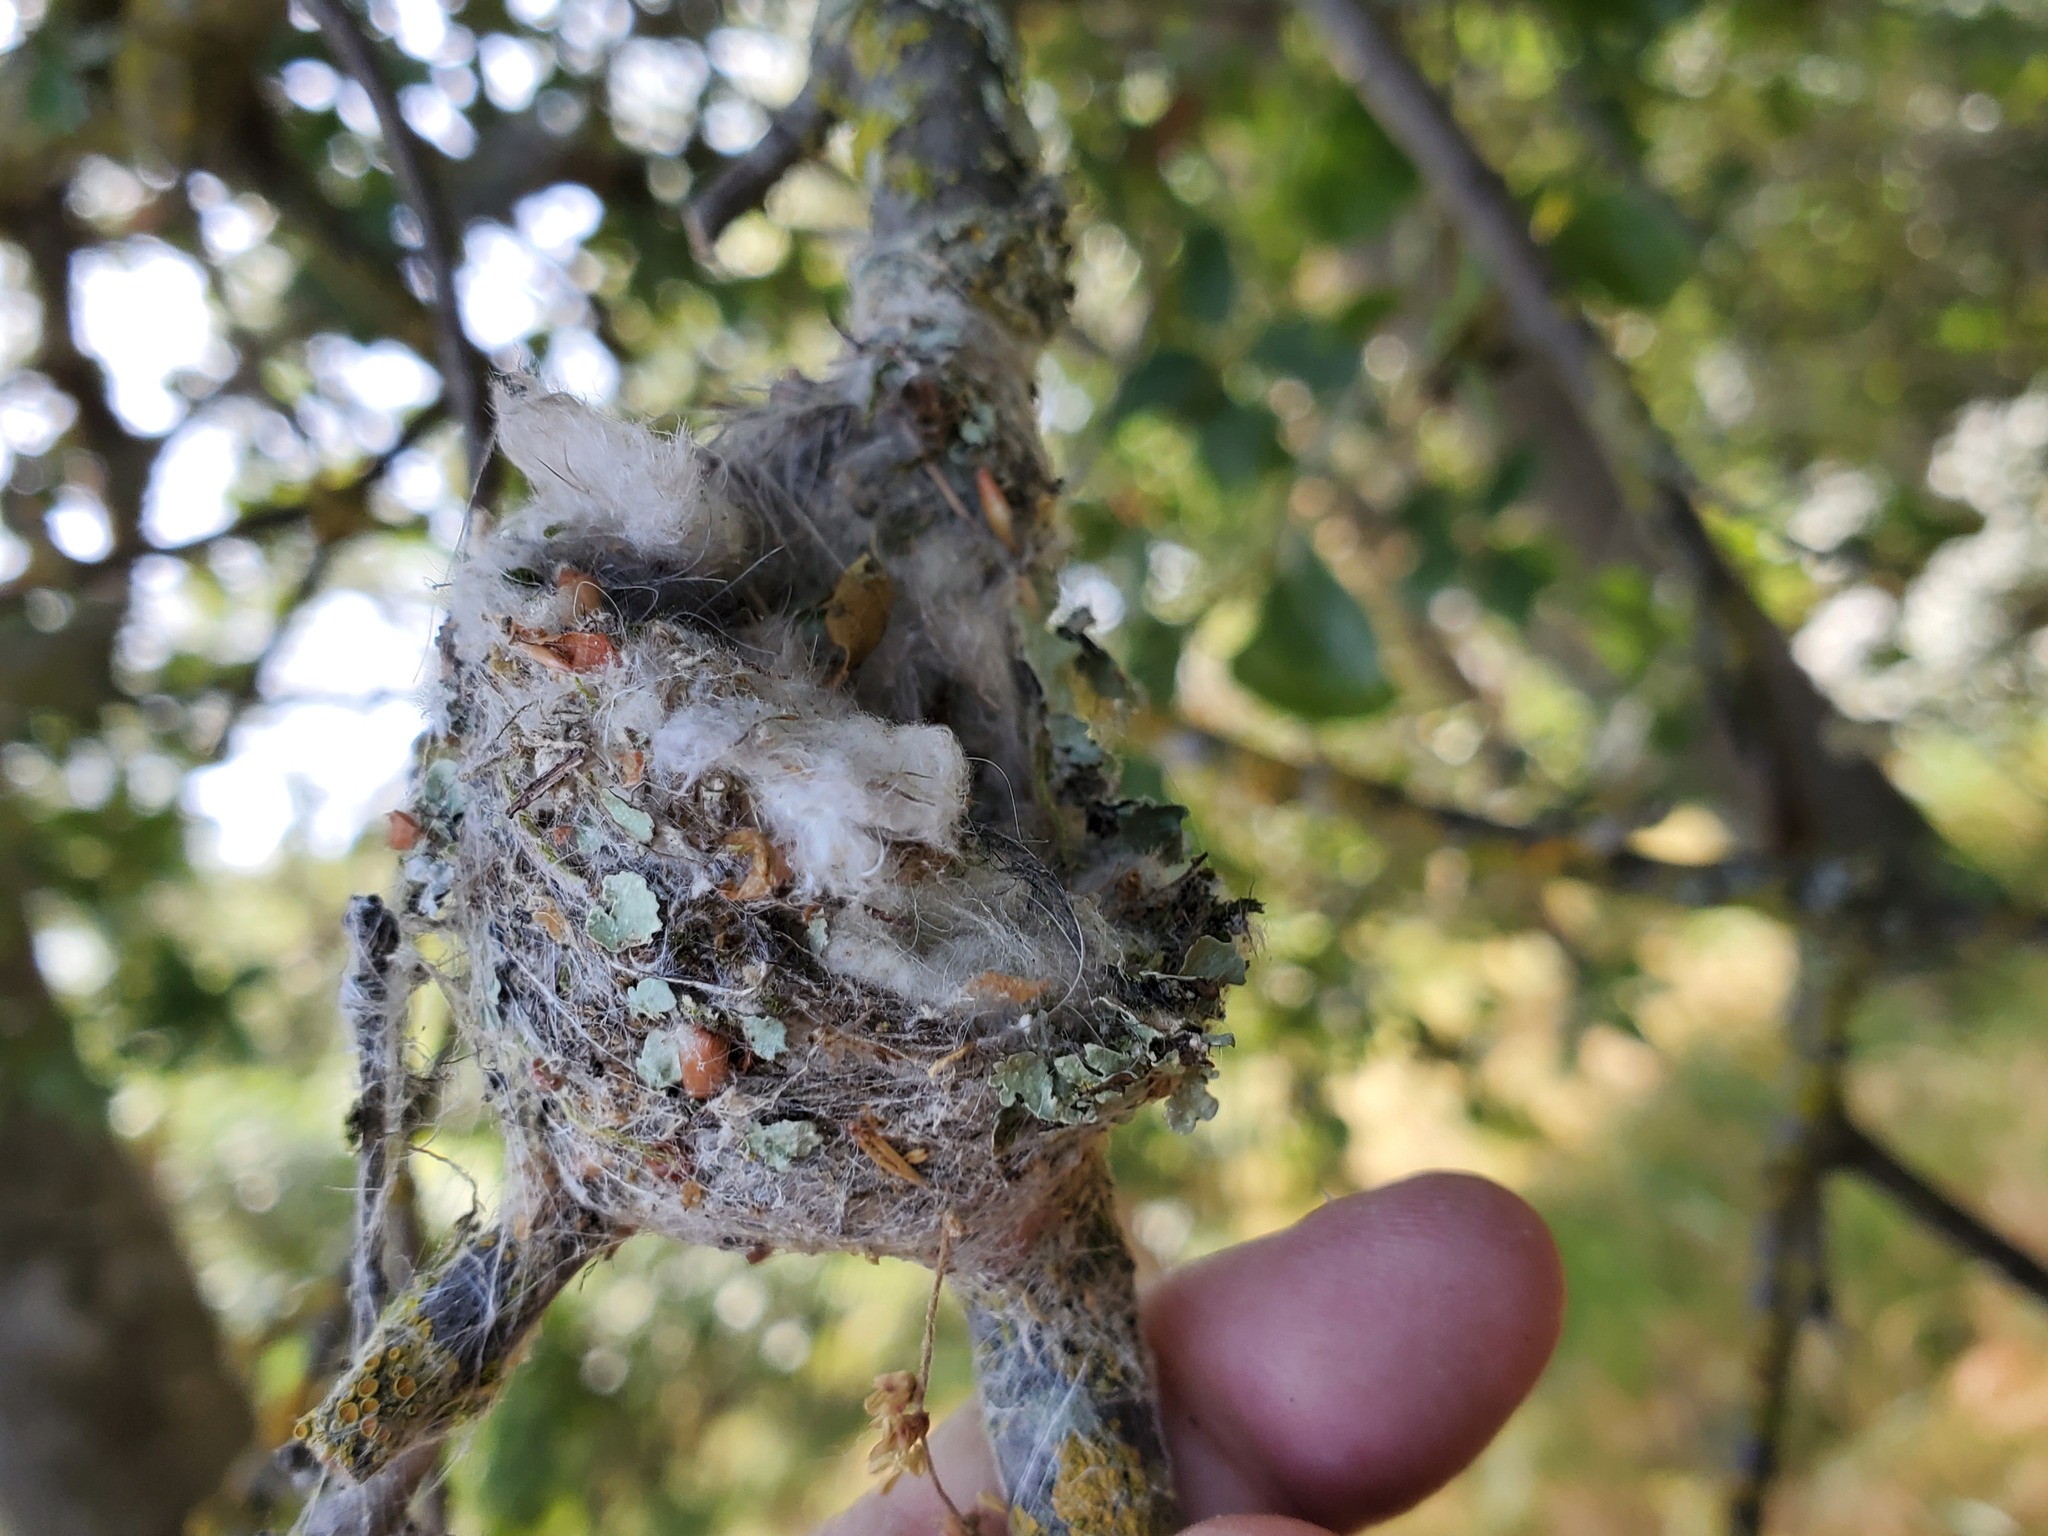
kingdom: Animalia
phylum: Chordata
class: Aves
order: Apodiformes
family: Trochilidae
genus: Calypte
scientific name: Calypte anna
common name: Anna's hummingbird
